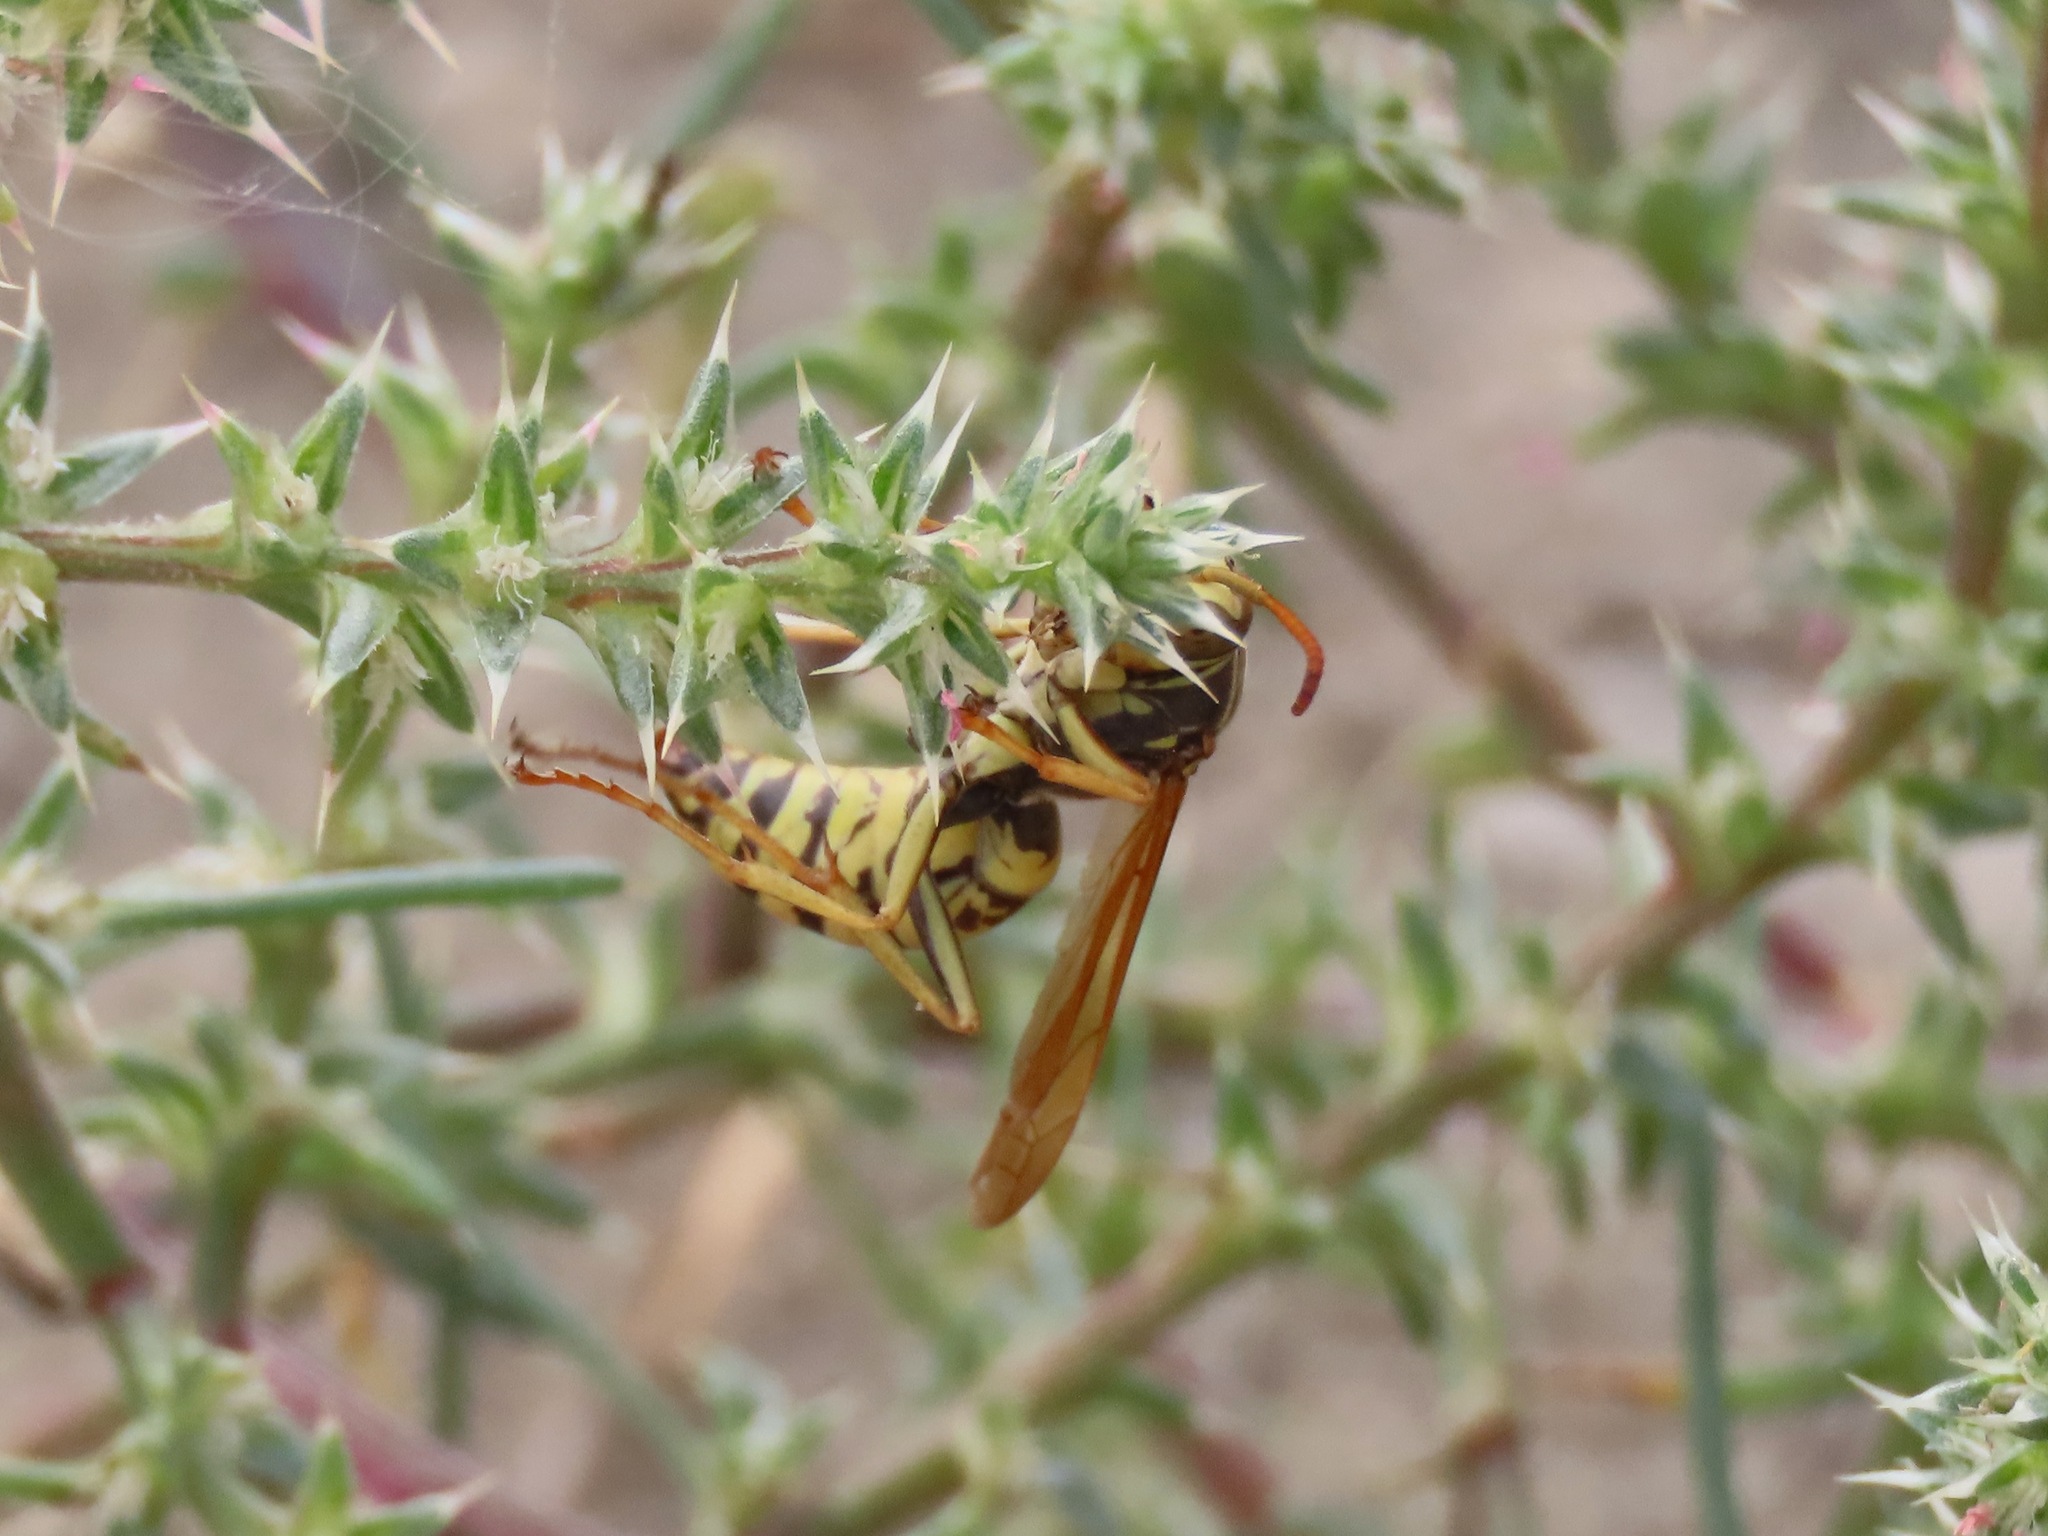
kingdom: Animalia
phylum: Arthropoda
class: Insecta
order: Hymenoptera
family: Eumenidae
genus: Polistes
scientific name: Polistes aurifer
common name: Paper wasp
